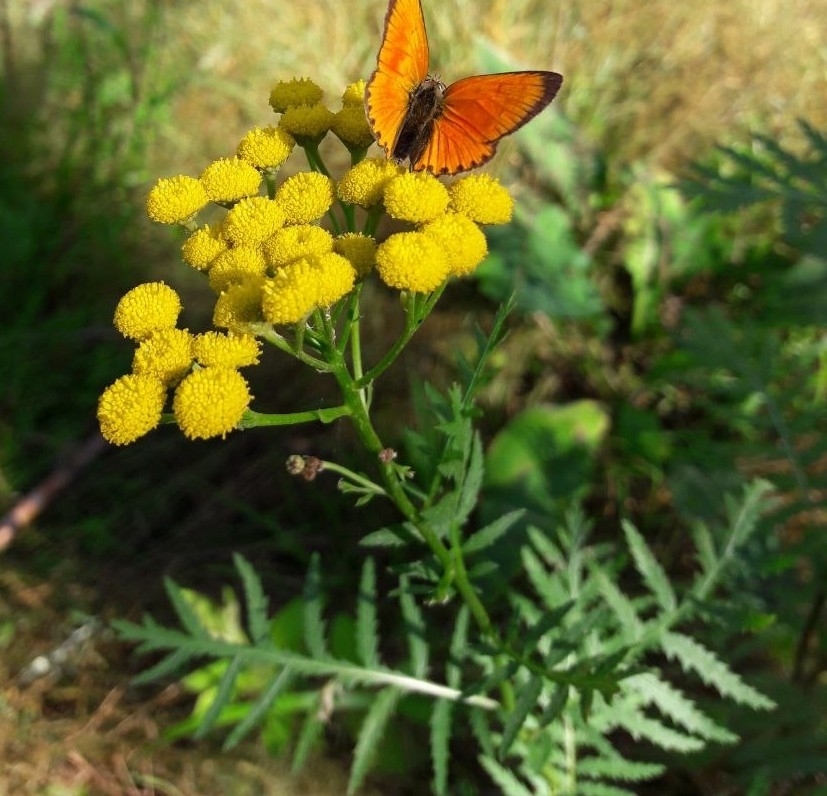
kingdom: Plantae
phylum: Tracheophyta
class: Magnoliopsida
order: Asterales
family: Asteraceae
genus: Tanacetum
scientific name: Tanacetum vulgare
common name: Common tansy
